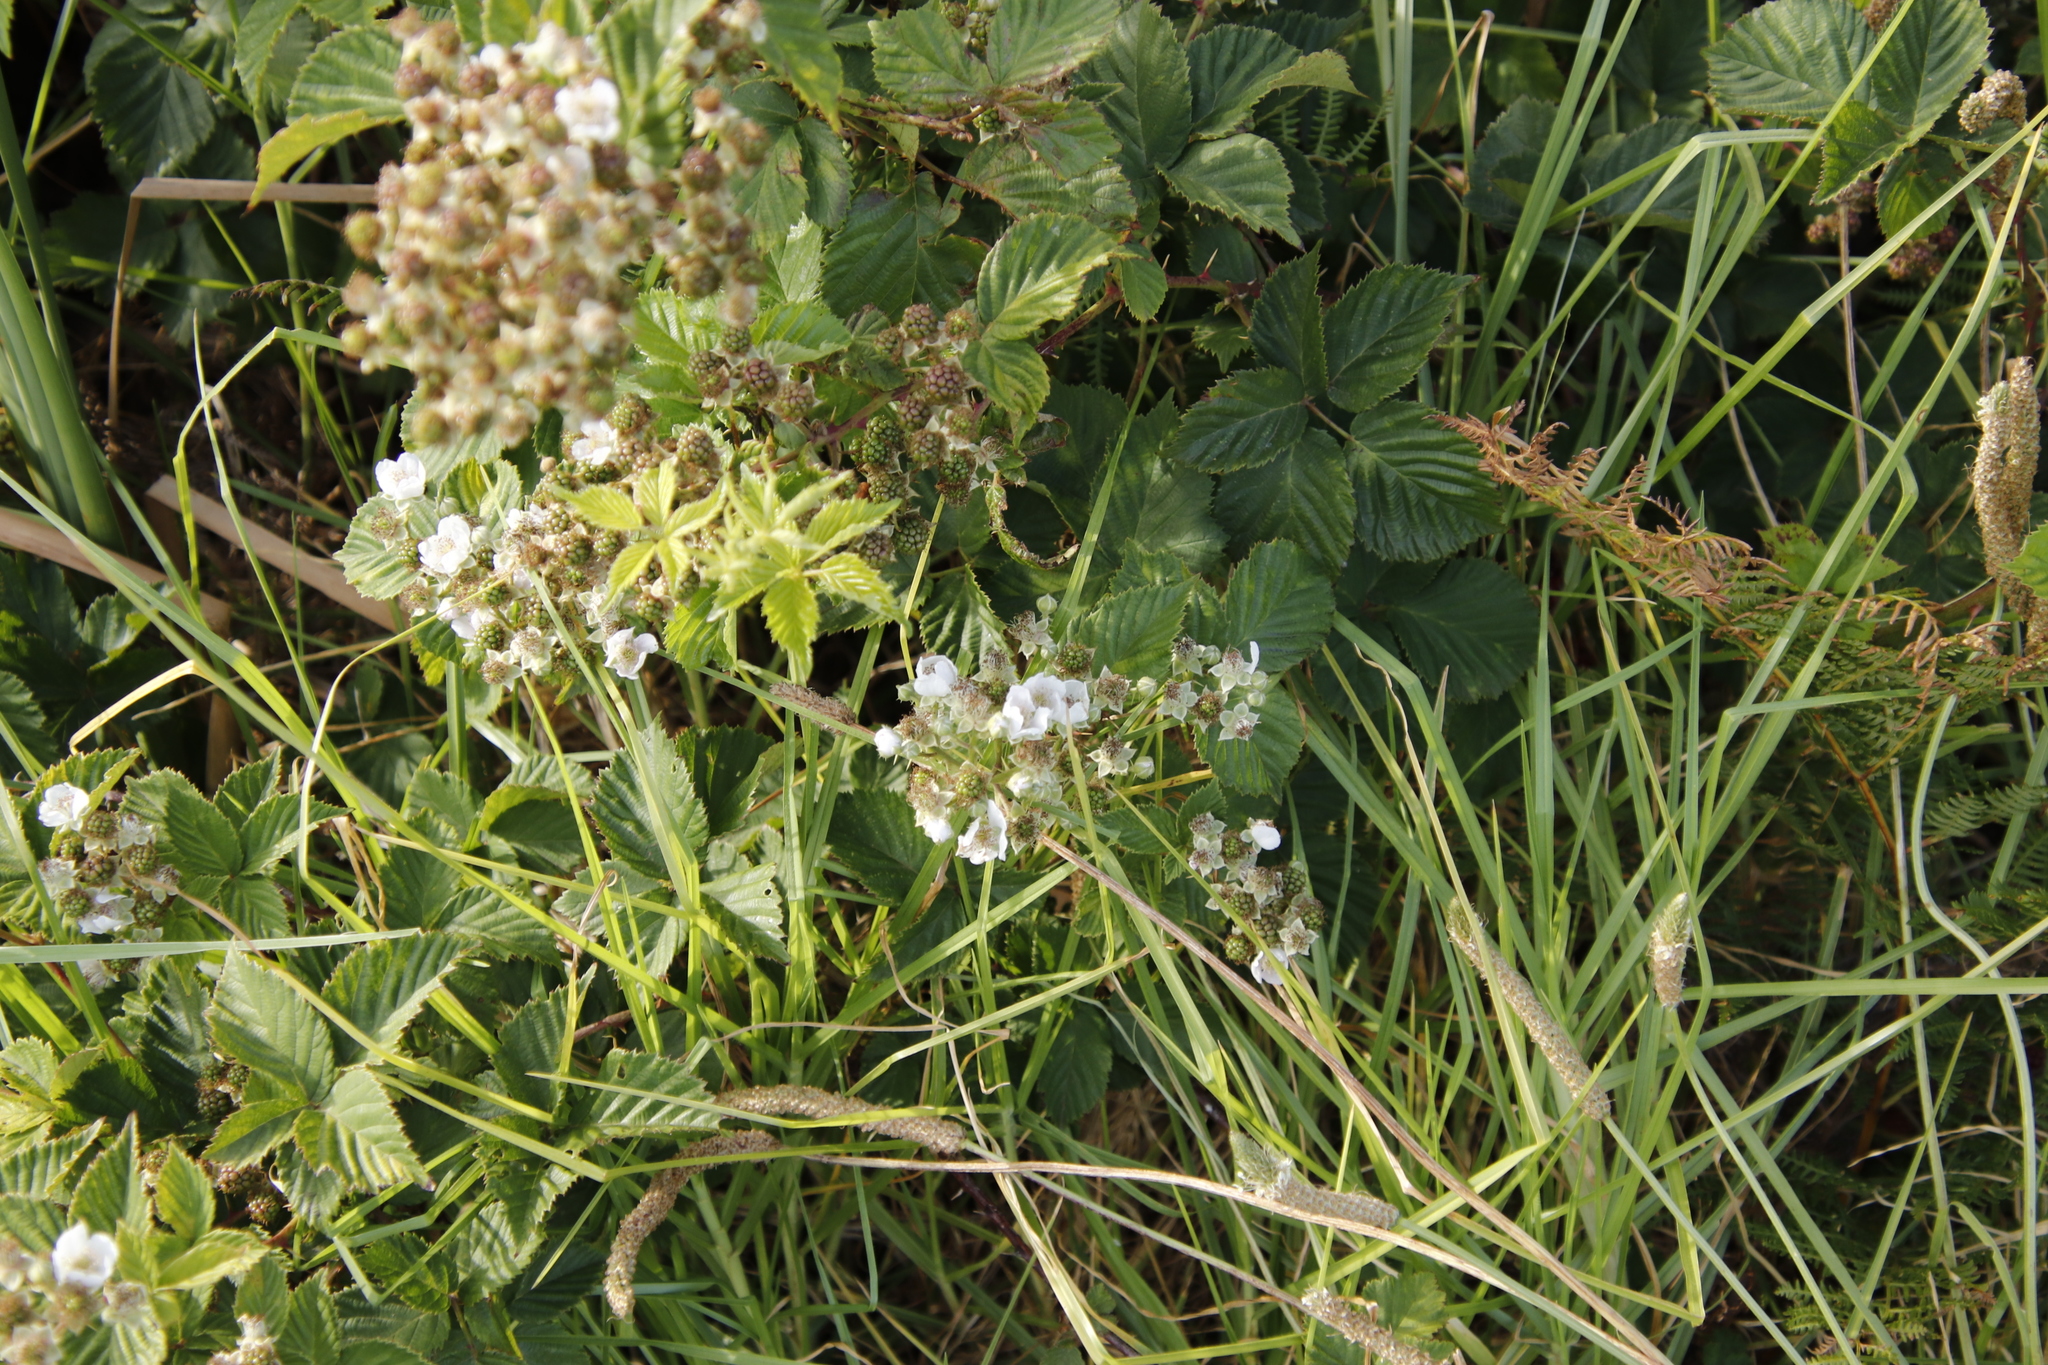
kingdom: Plantae
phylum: Tracheophyta
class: Magnoliopsida
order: Rosales
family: Rosaceae
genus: Rubus
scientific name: Rubus affinis
